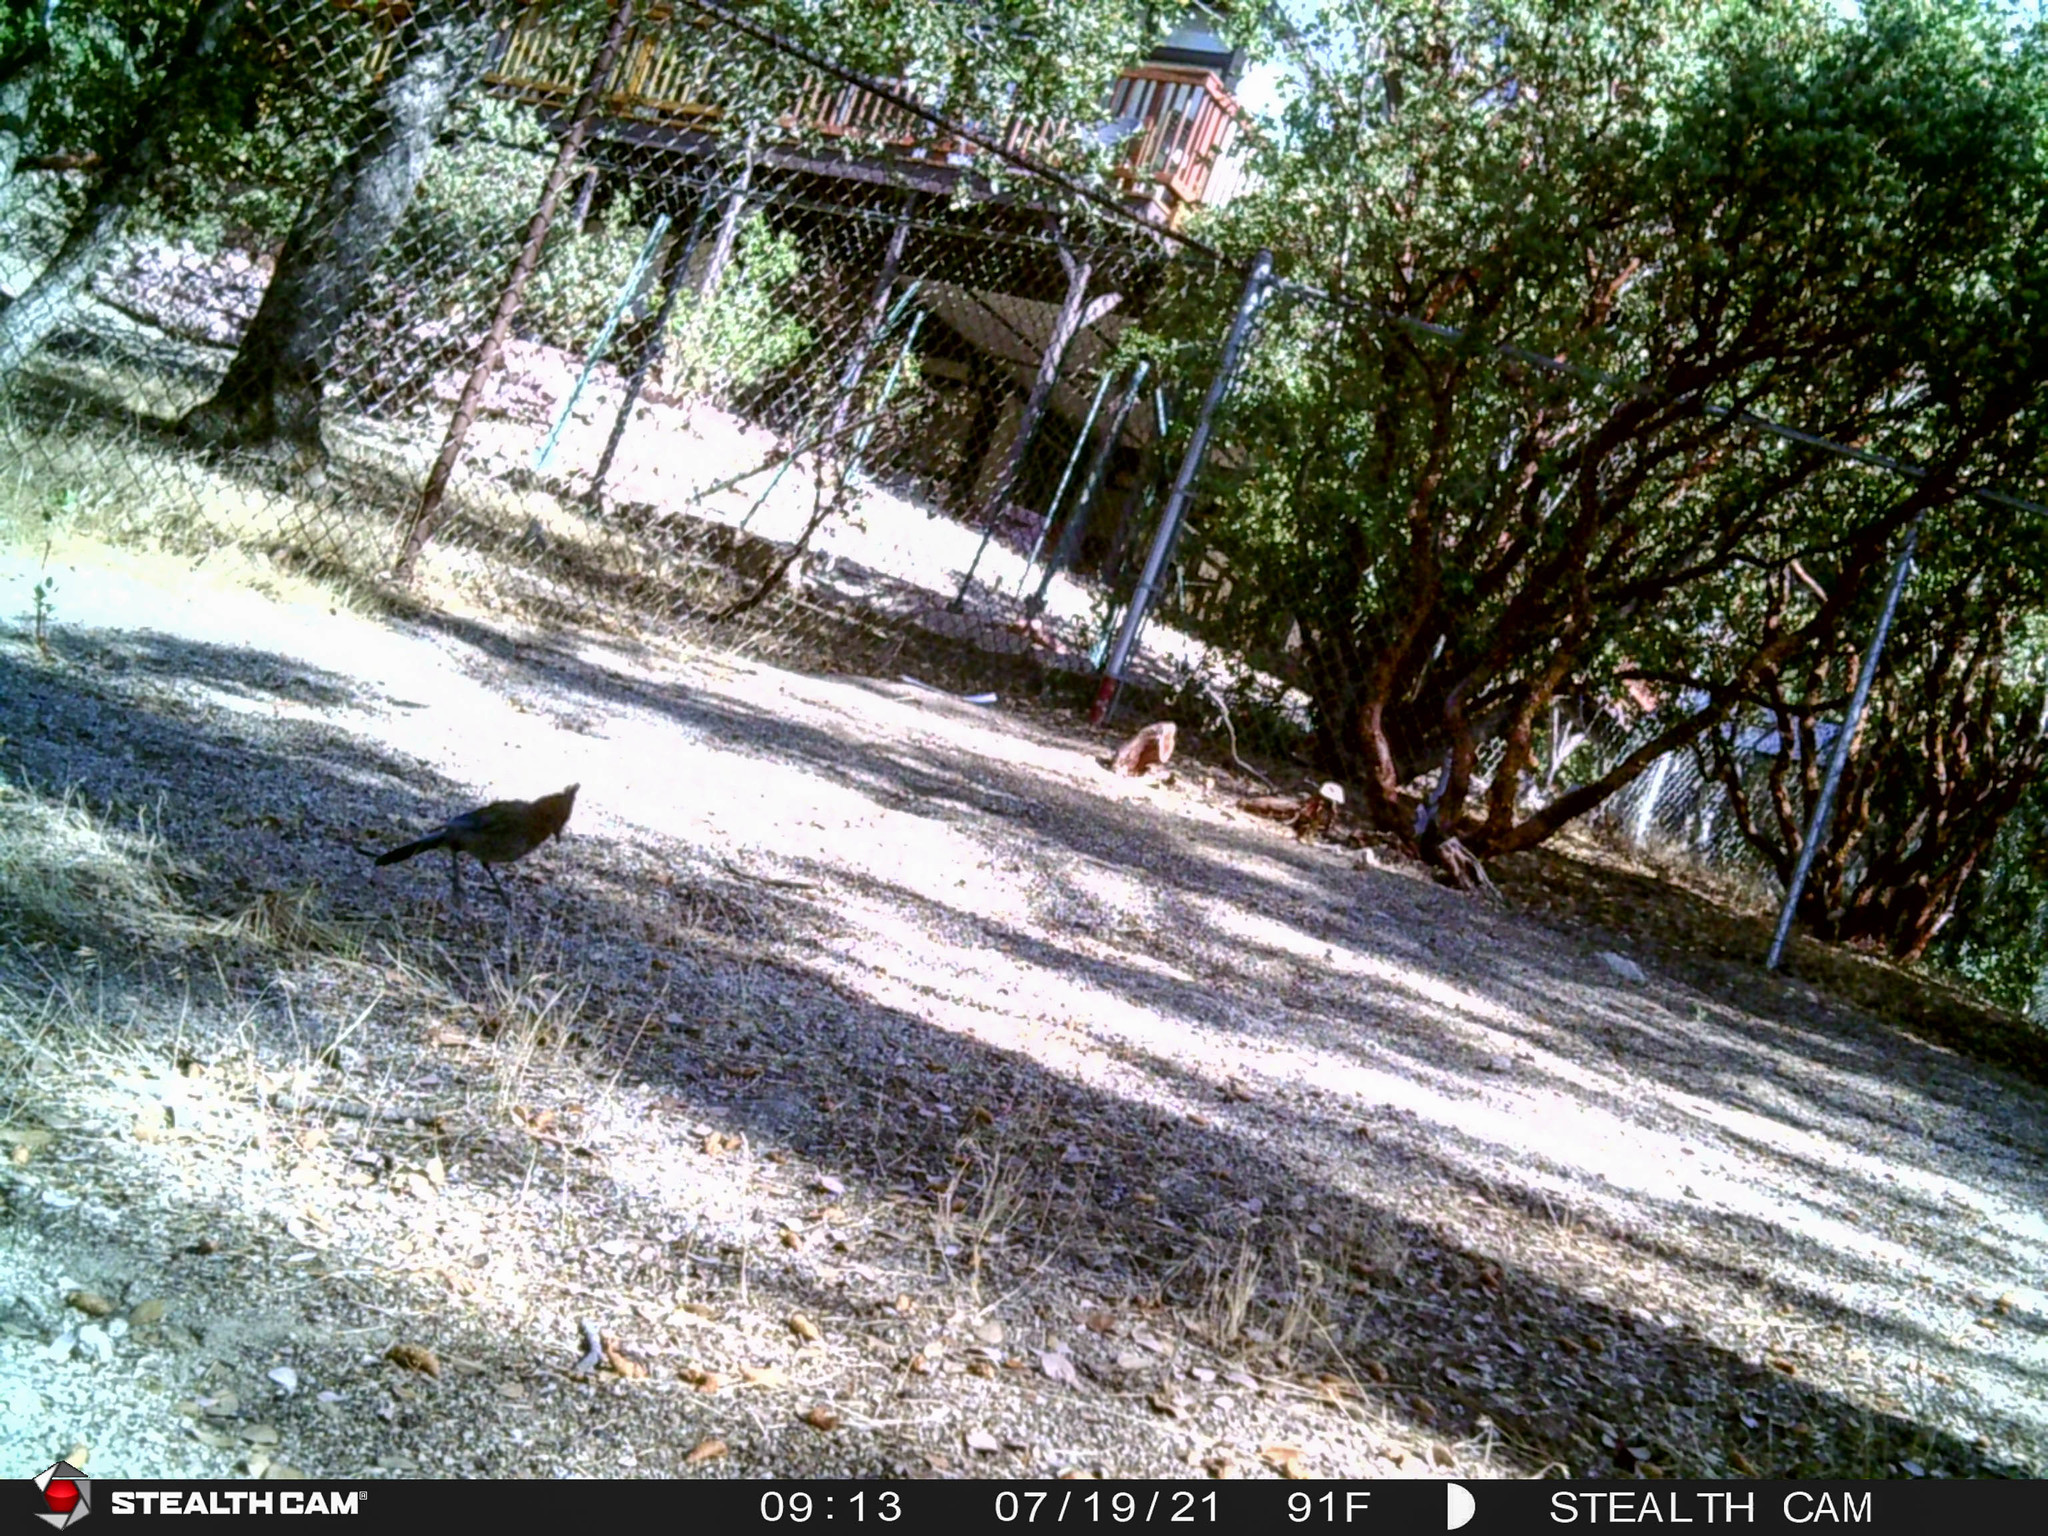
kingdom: Animalia
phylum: Chordata
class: Aves
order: Passeriformes
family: Corvidae
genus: Cyanocitta
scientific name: Cyanocitta stelleri
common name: Steller's jay
